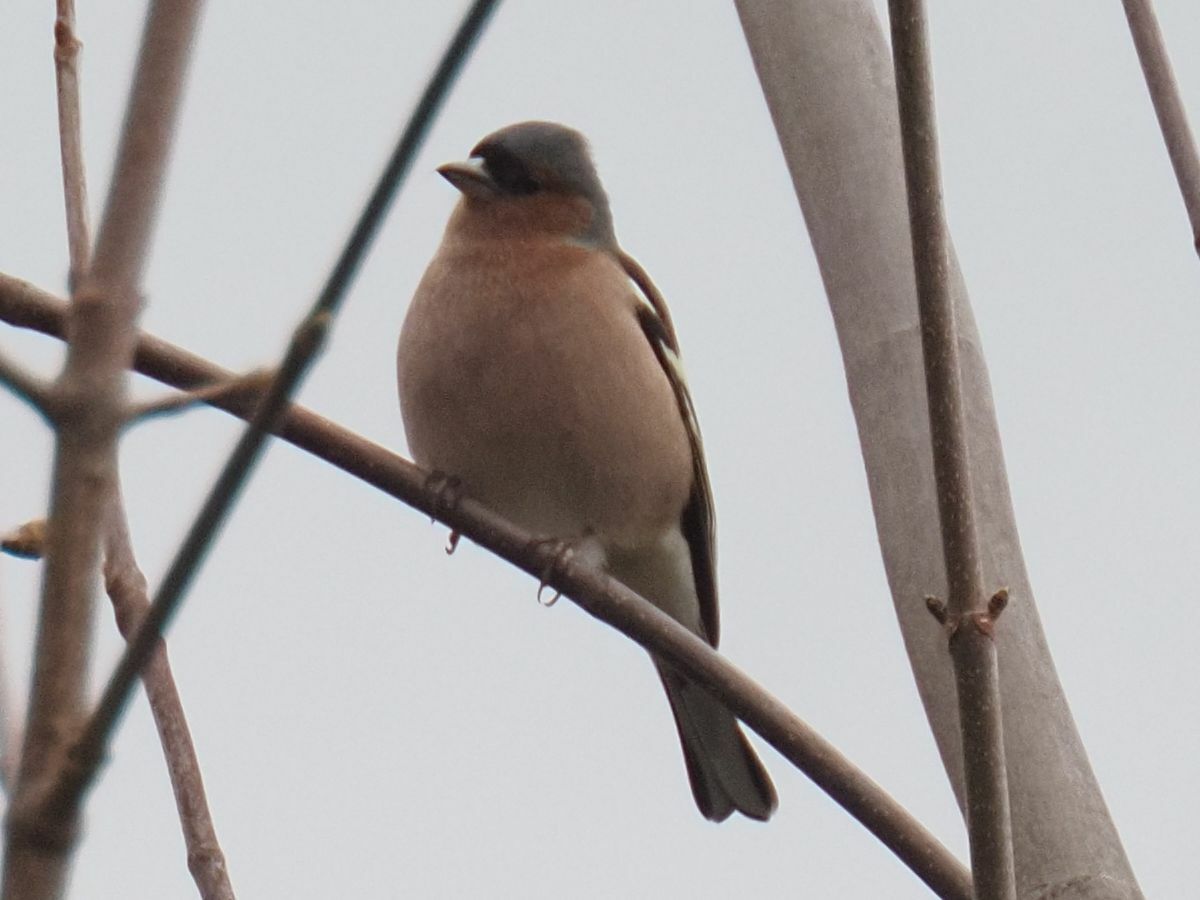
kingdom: Animalia
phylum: Chordata
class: Aves
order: Passeriformes
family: Fringillidae
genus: Fringilla
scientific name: Fringilla coelebs
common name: Common chaffinch
